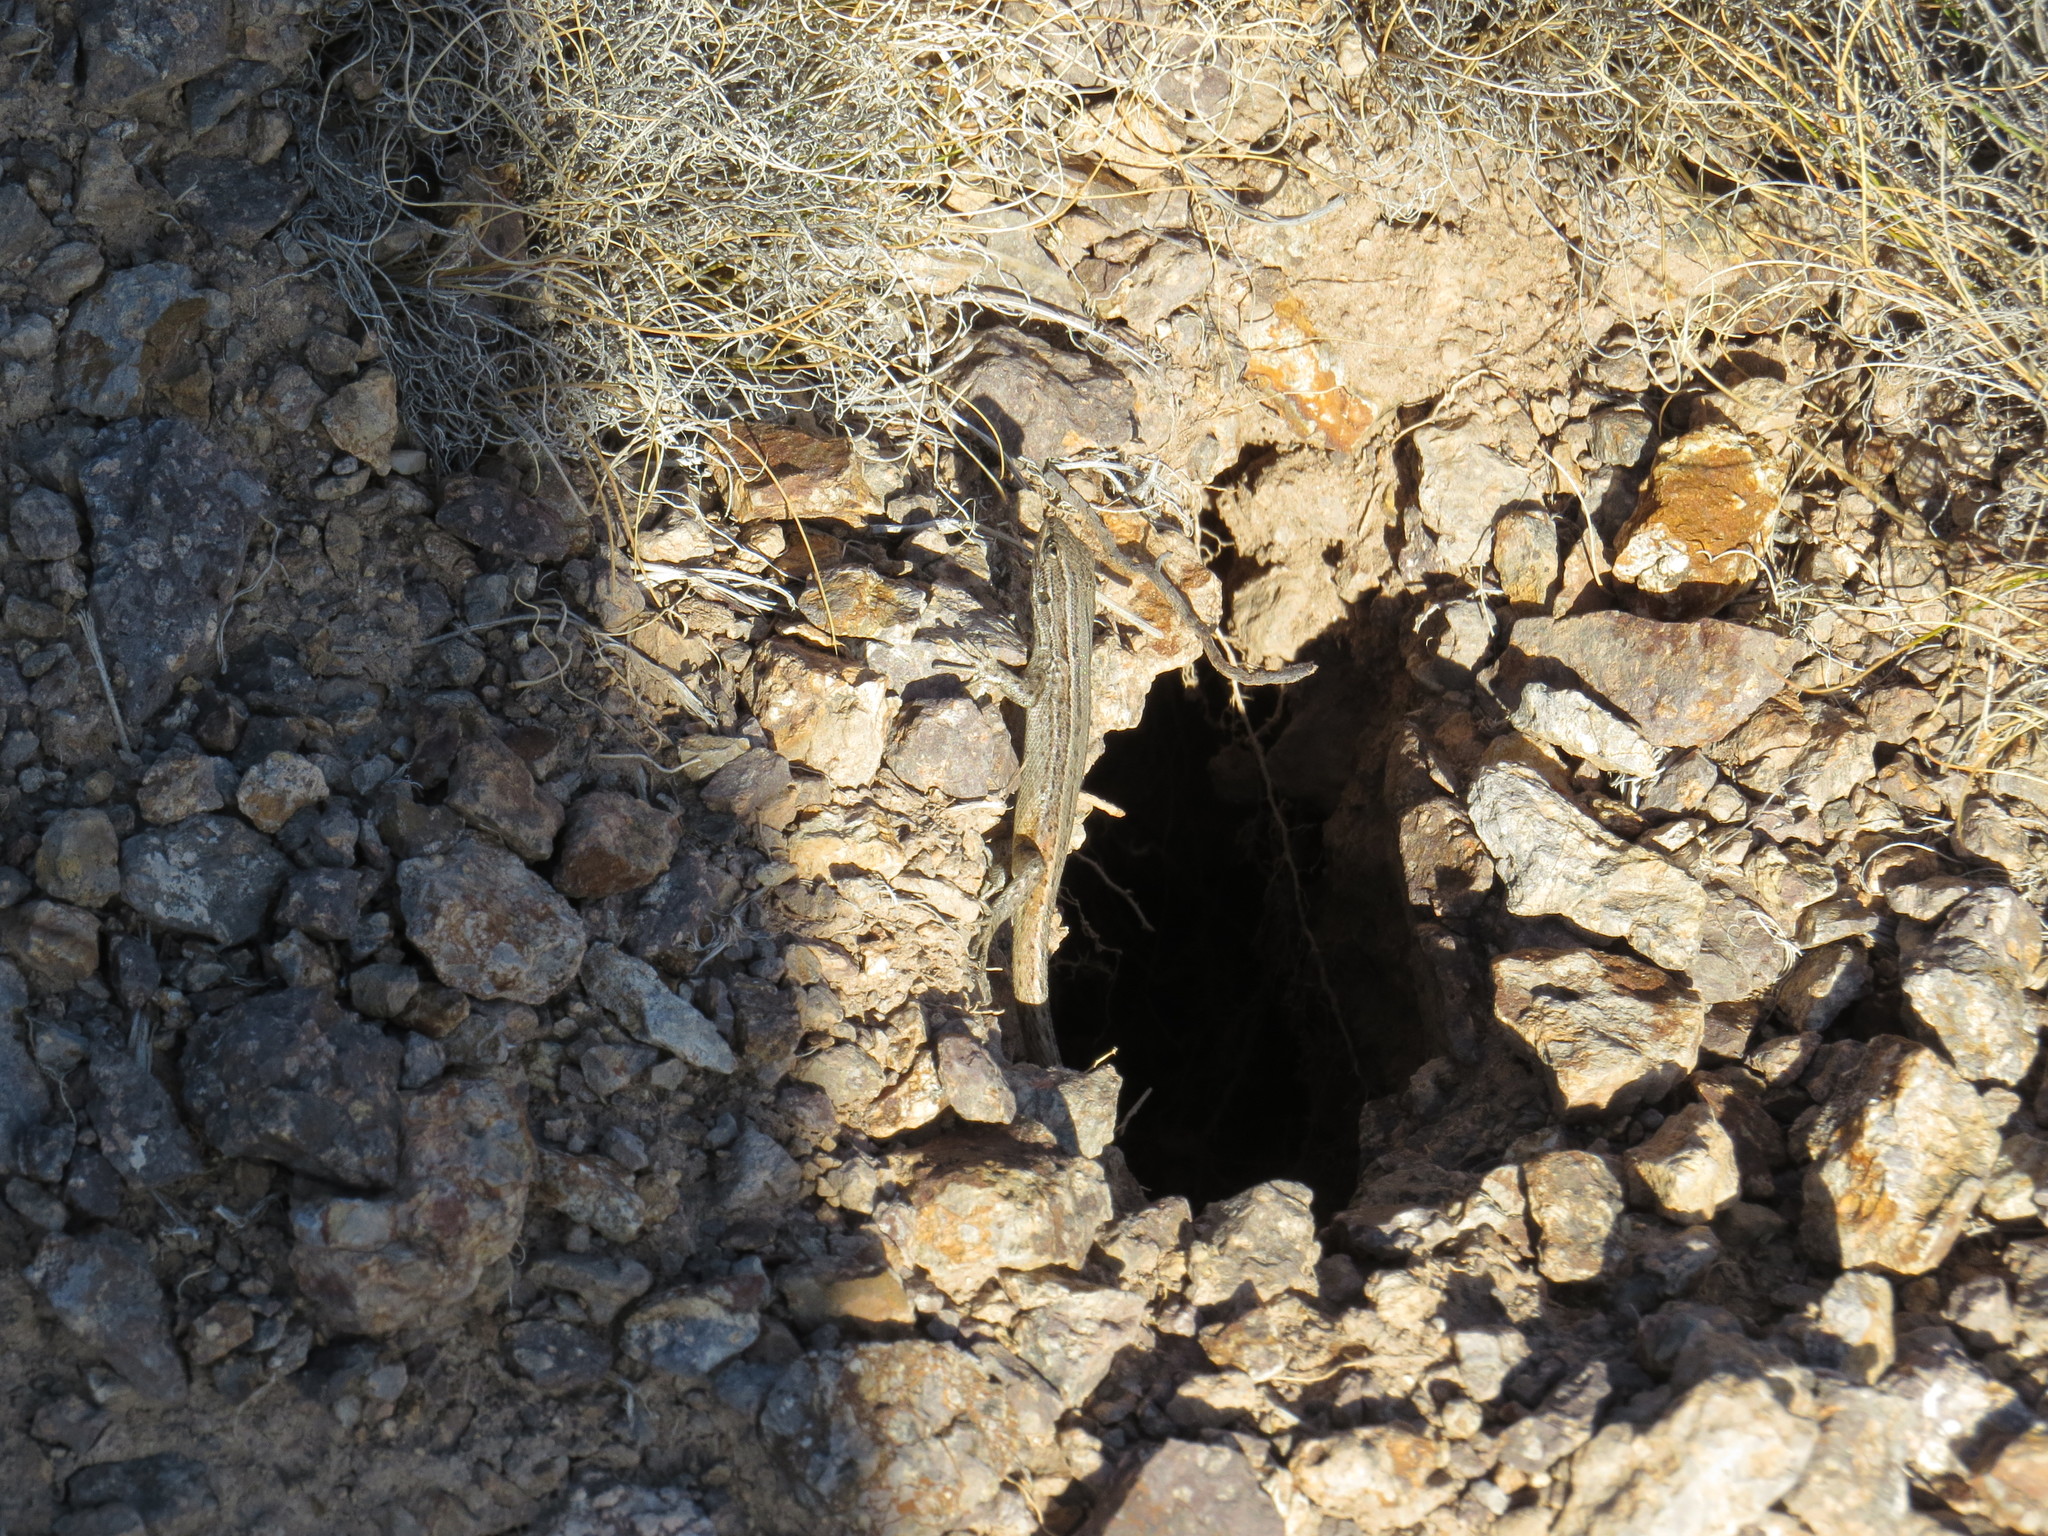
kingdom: Animalia
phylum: Chordata
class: Squamata
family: Liolaemidae
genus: Liolaemus
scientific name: Liolaemus yalguaraz
